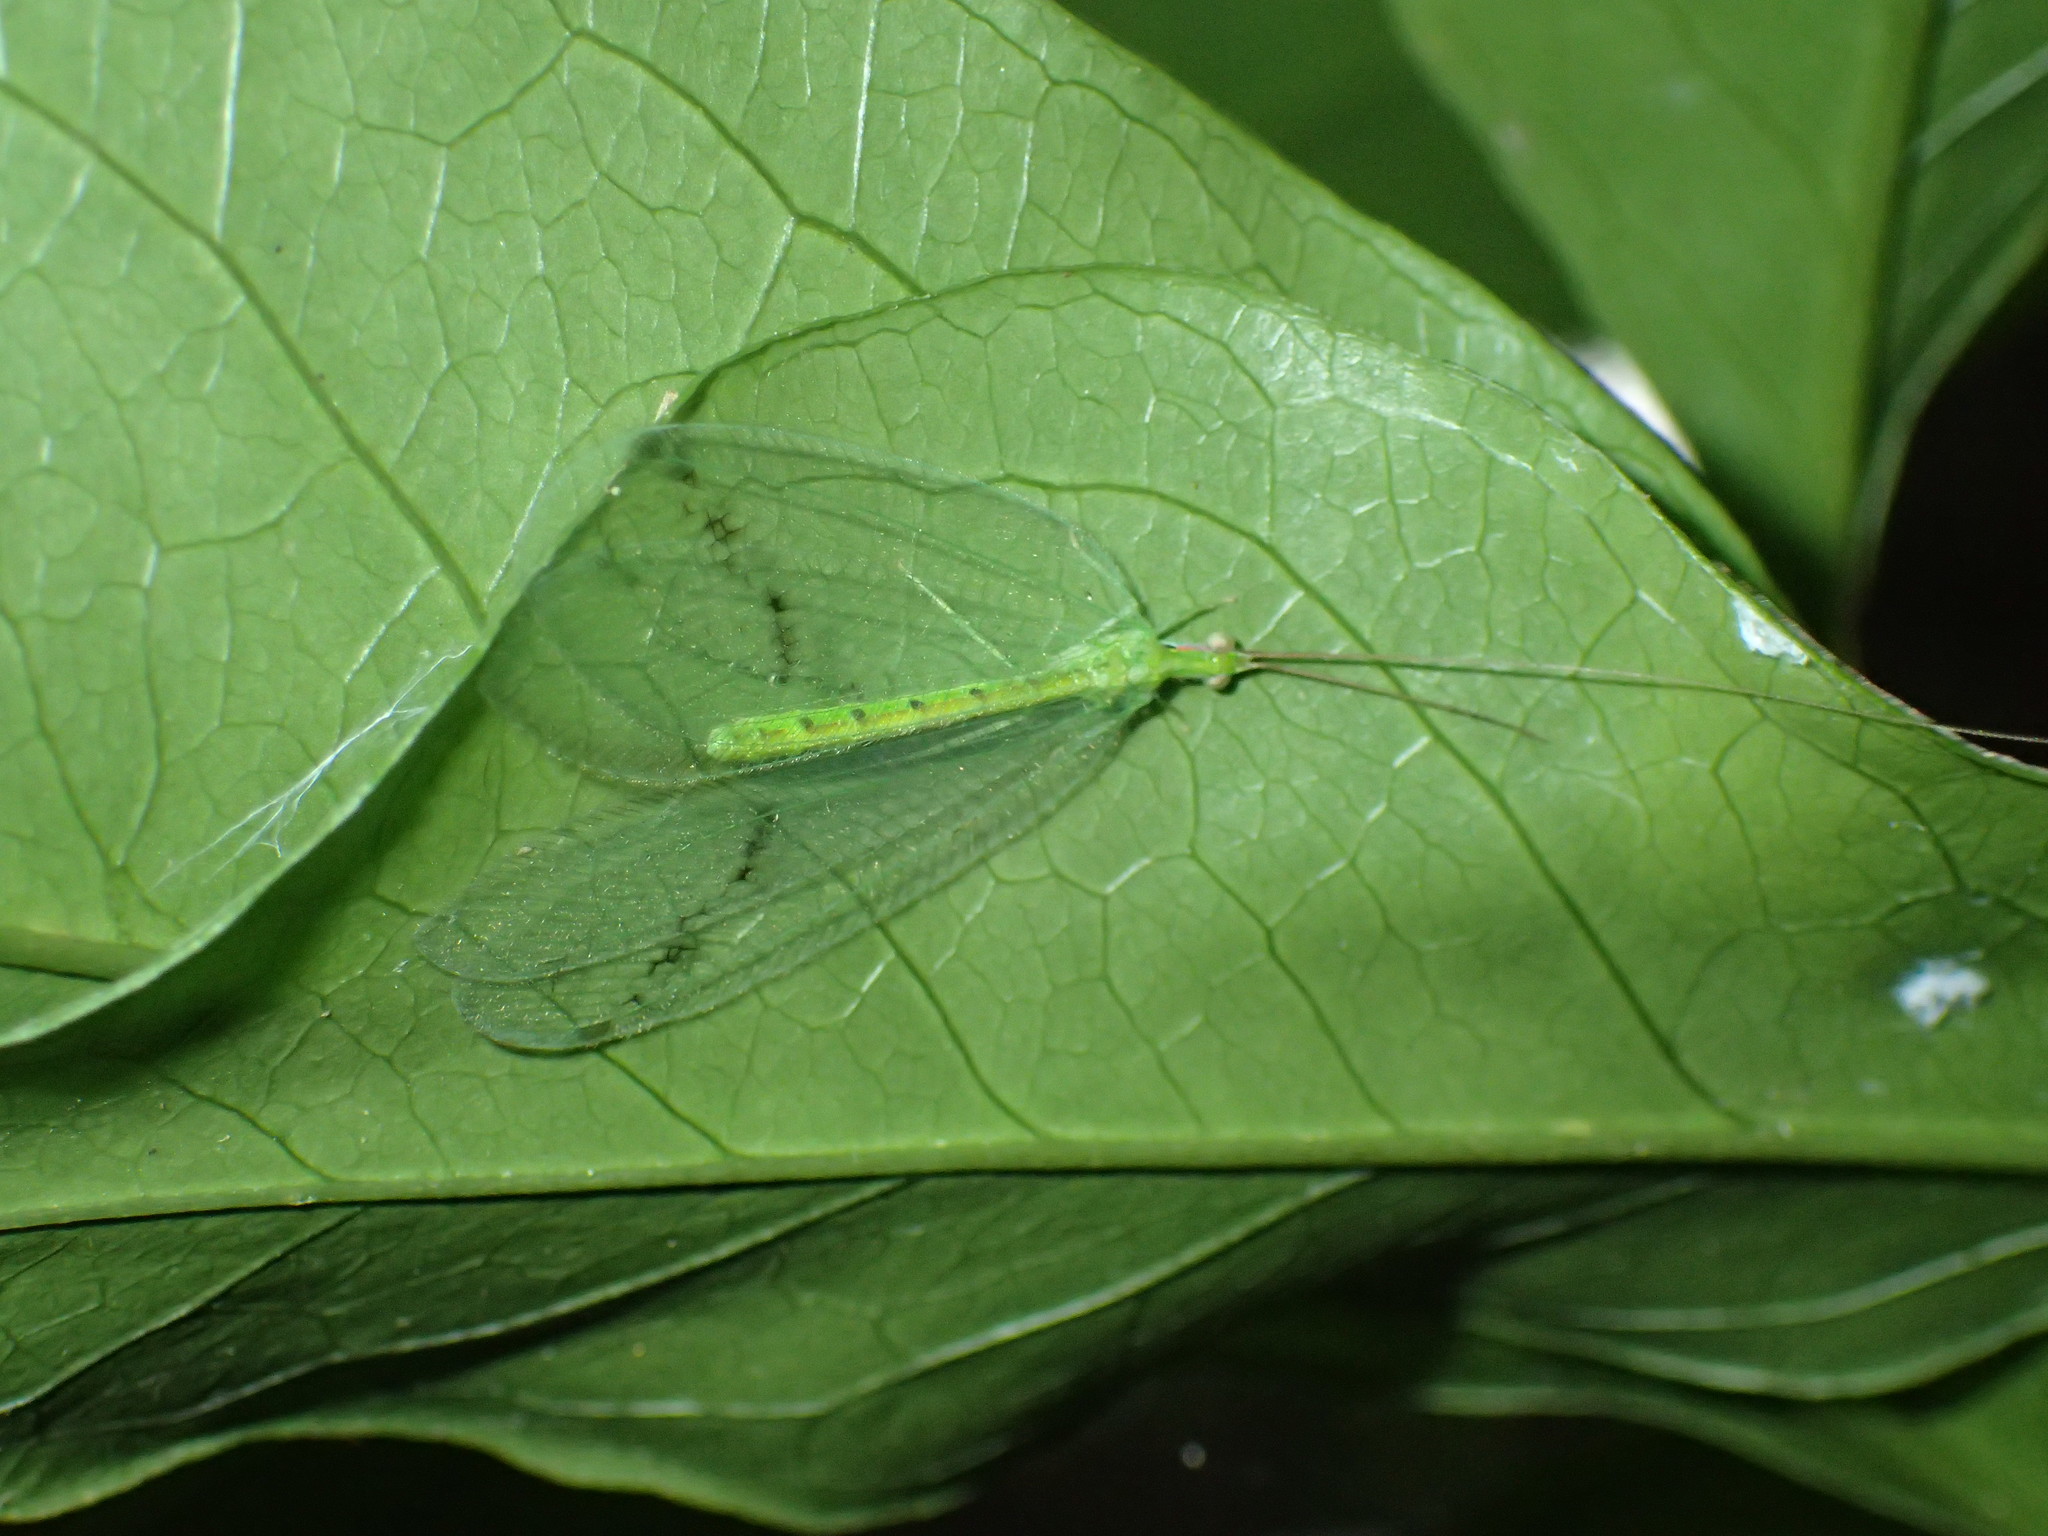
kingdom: Animalia
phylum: Arthropoda
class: Insecta
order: Neuroptera
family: Chrysopidae
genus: Apochrysa
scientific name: Apochrysa voeltzkowi
